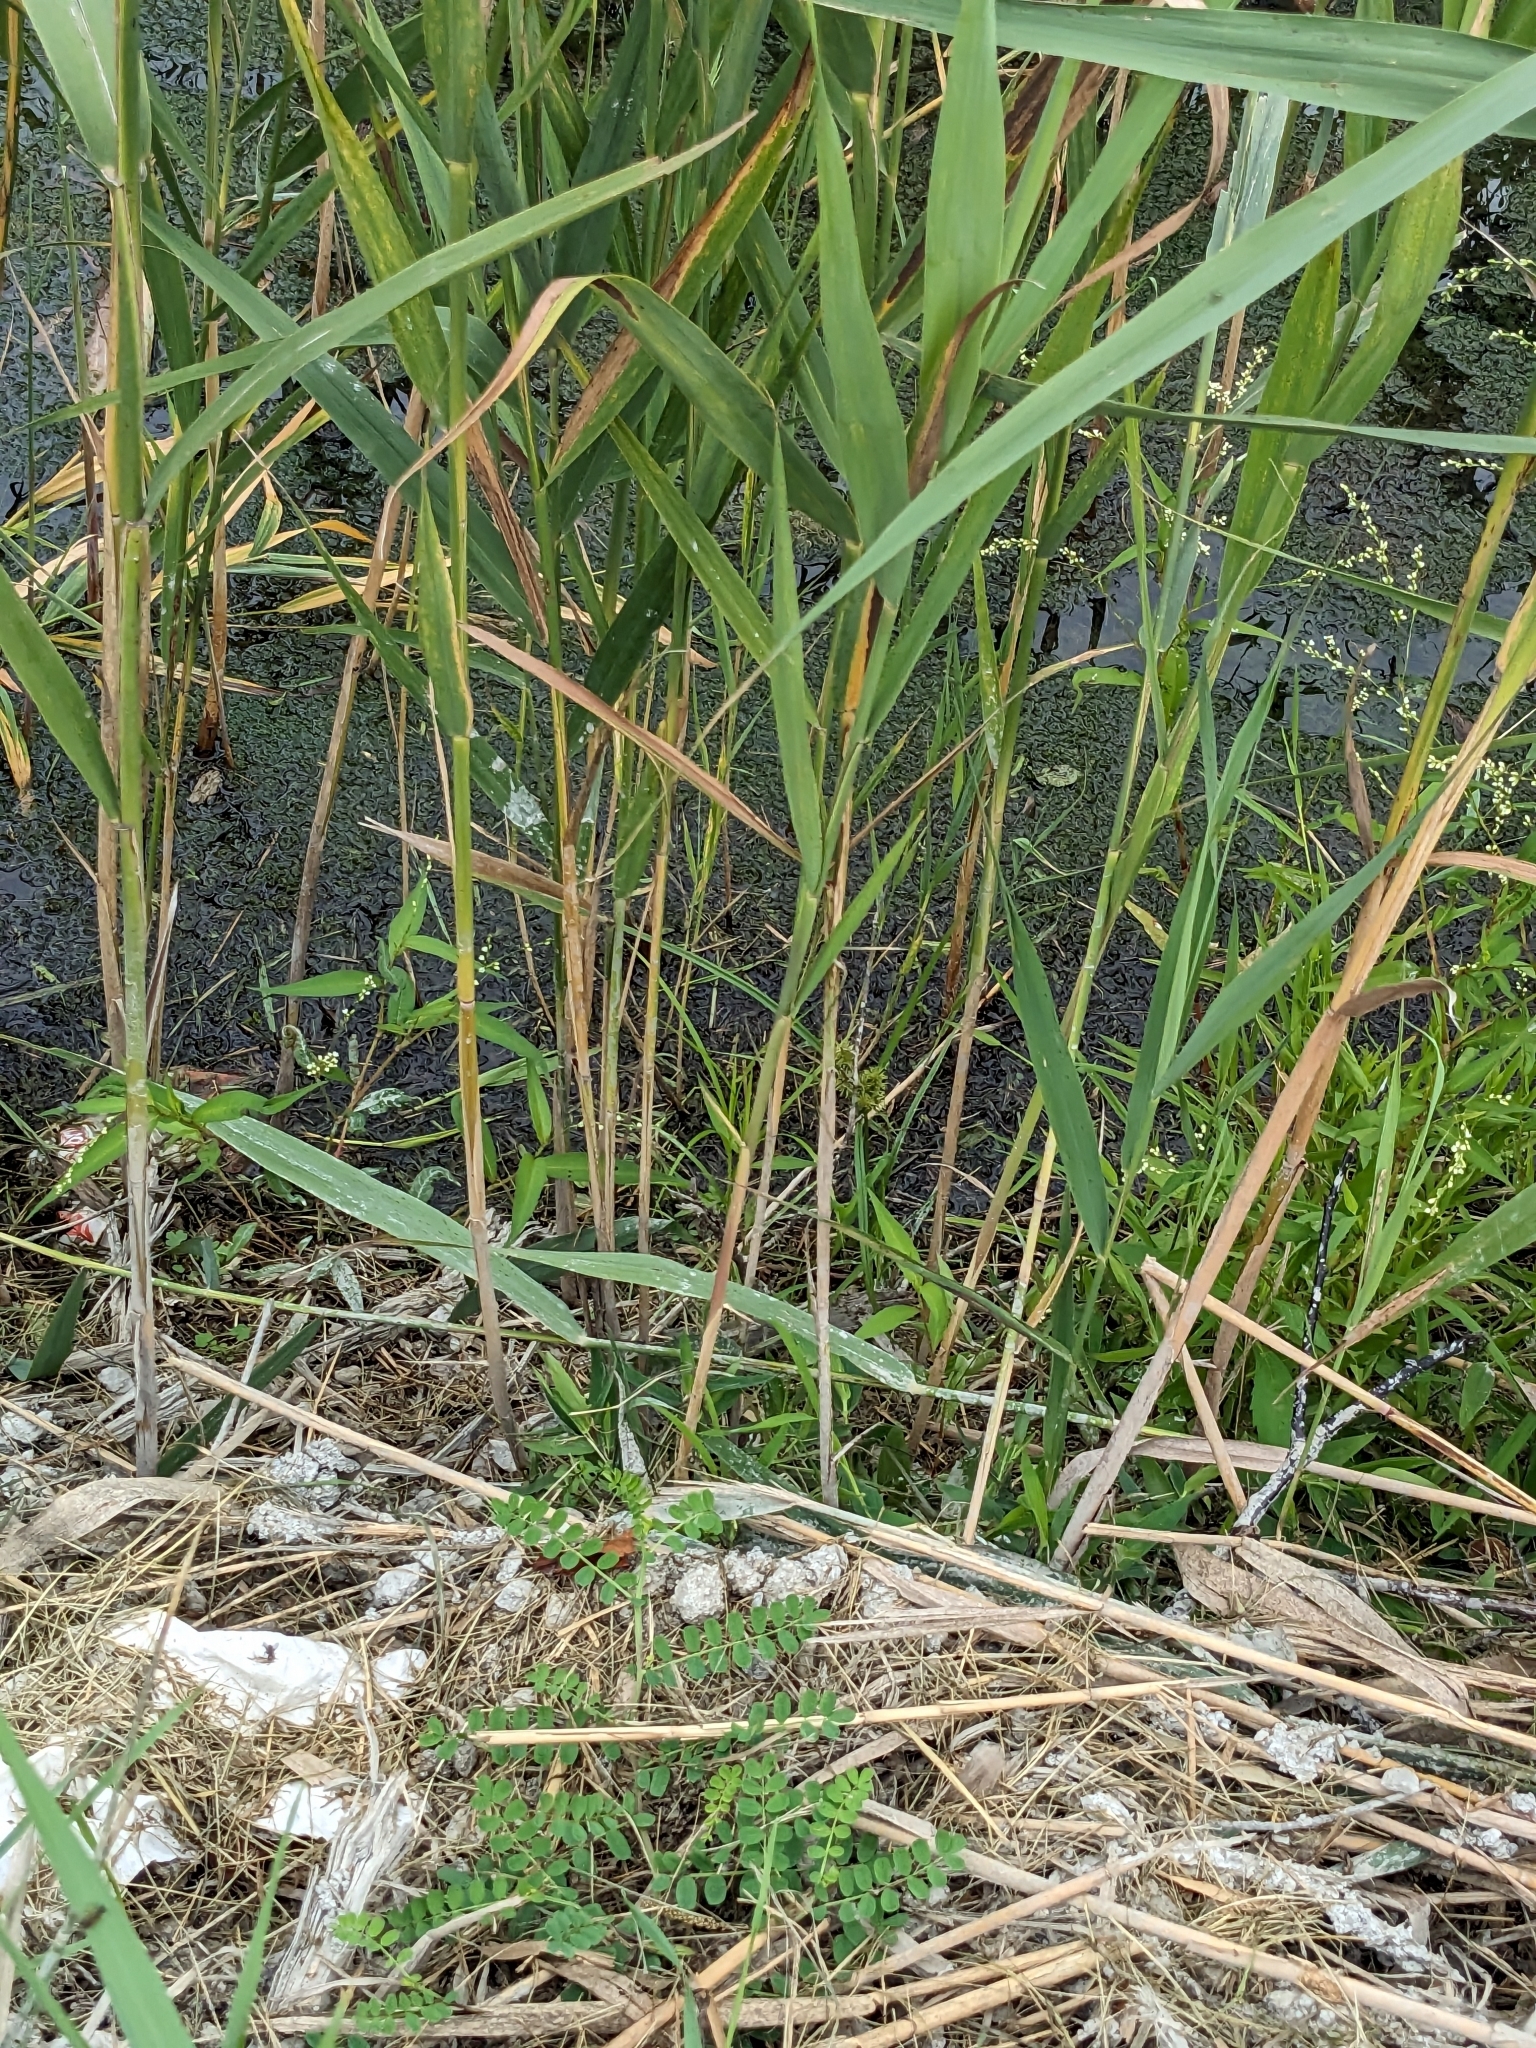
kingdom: Plantae
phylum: Tracheophyta
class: Liliopsida
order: Poales
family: Poaceae
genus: Phragmites
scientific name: Phragmites australis
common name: Common reed
